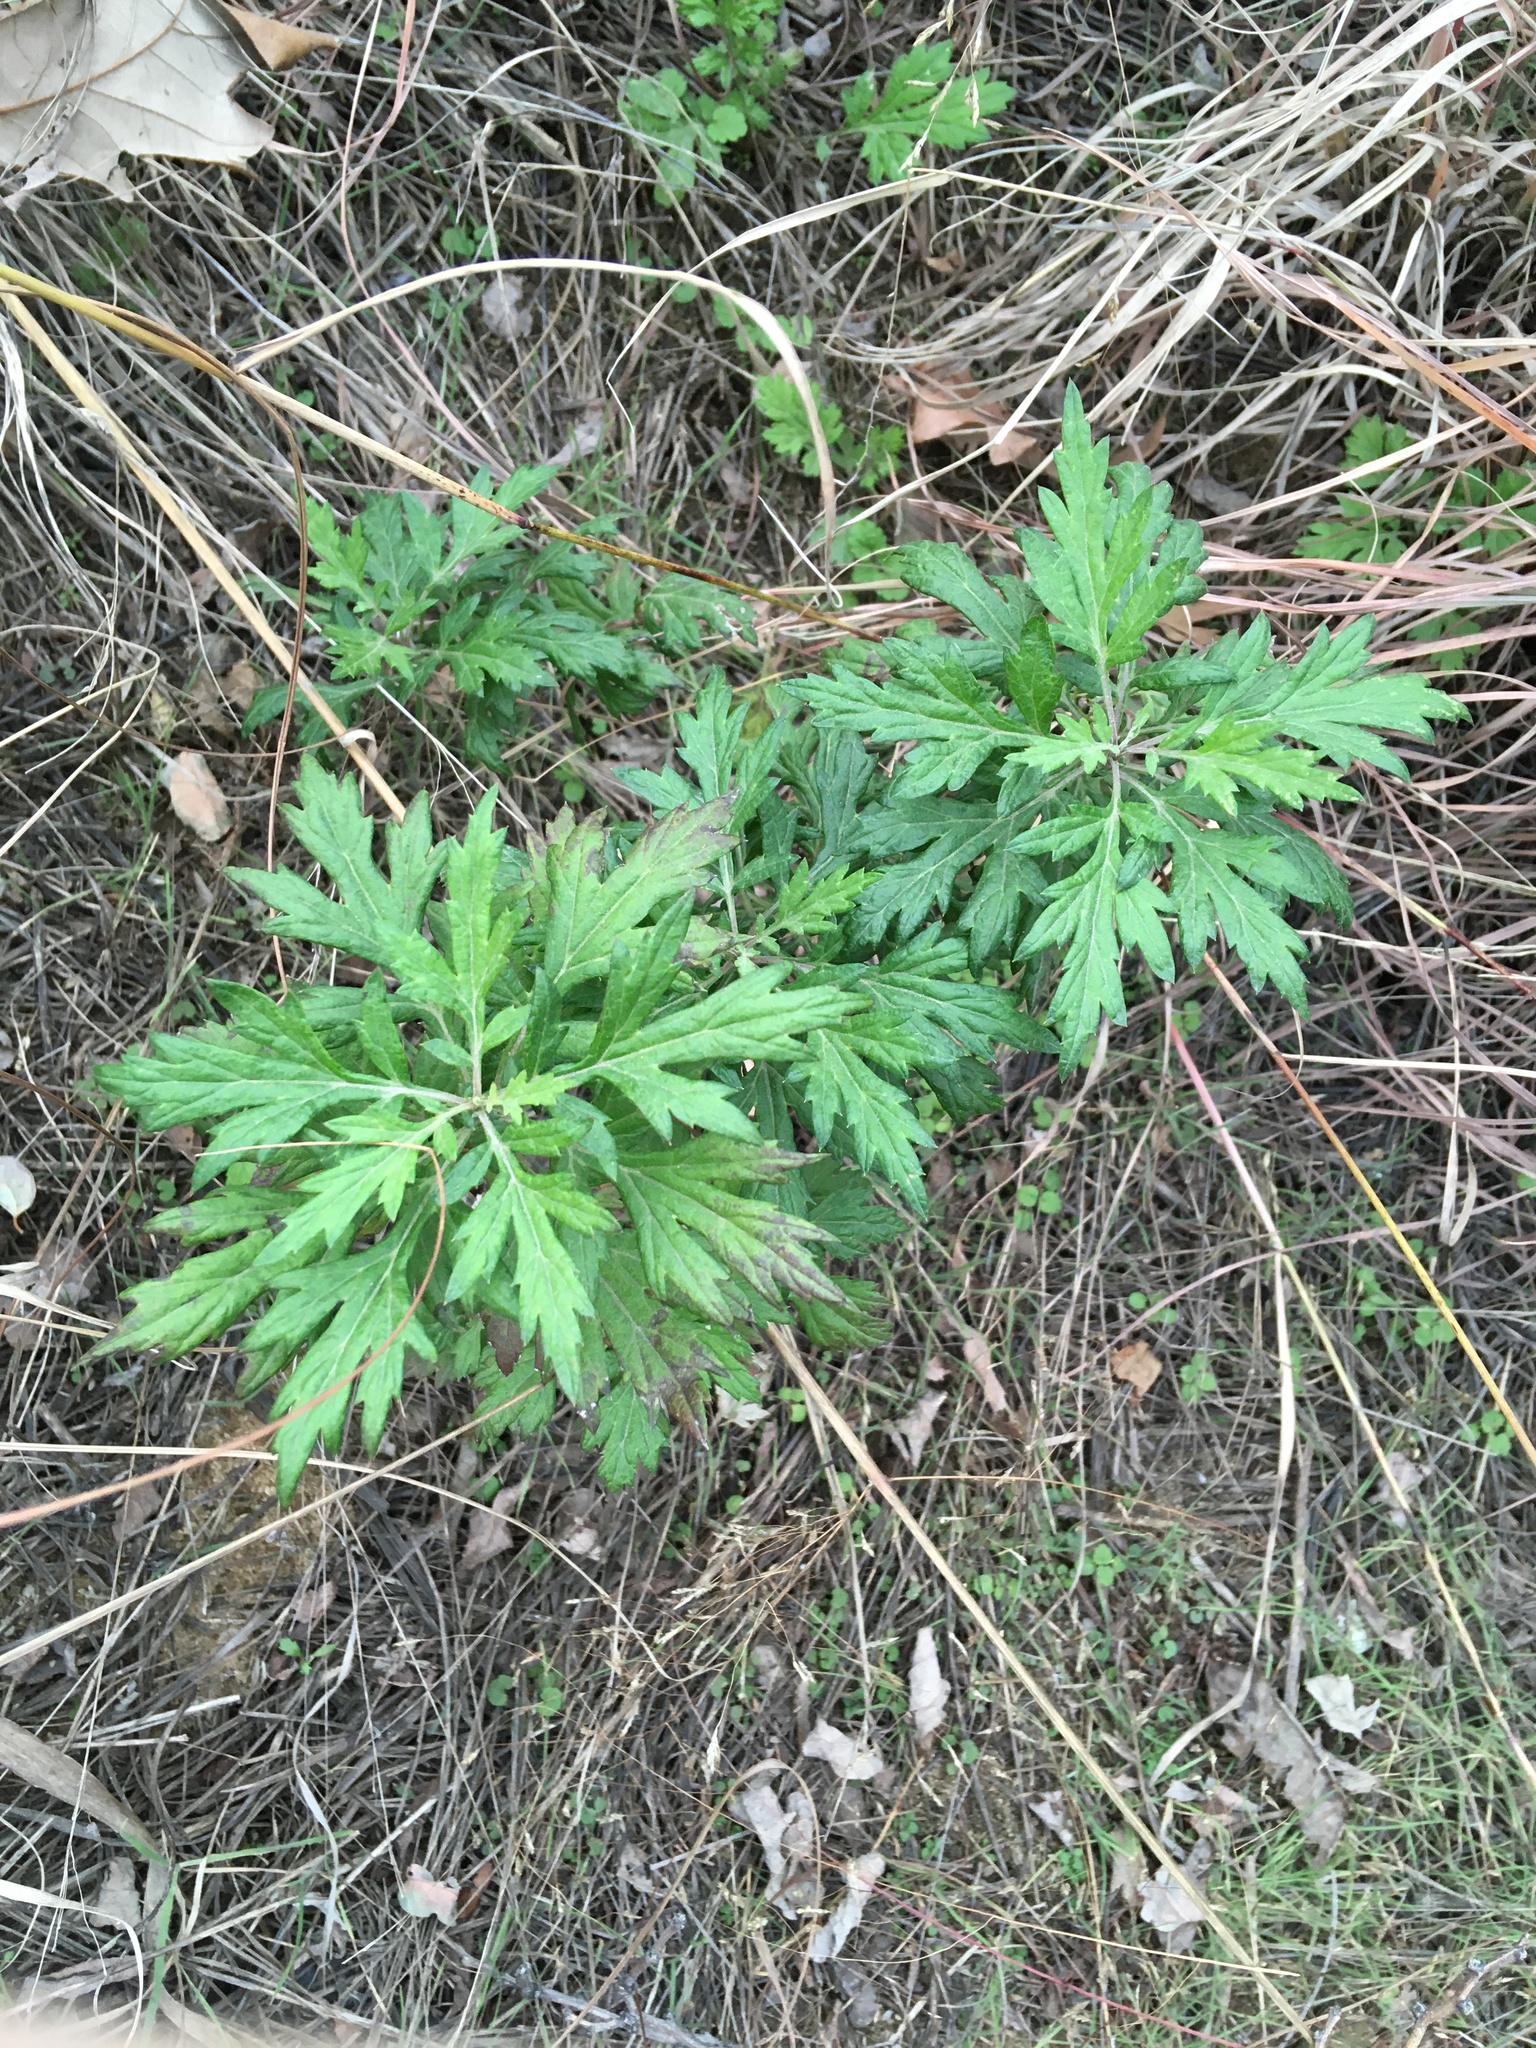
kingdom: Plantae
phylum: Tracheophyta
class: Magnoliopsida
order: Asterales
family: Asteraceae
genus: Artemisia
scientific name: Artemisia vulgaris
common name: Mugwort
